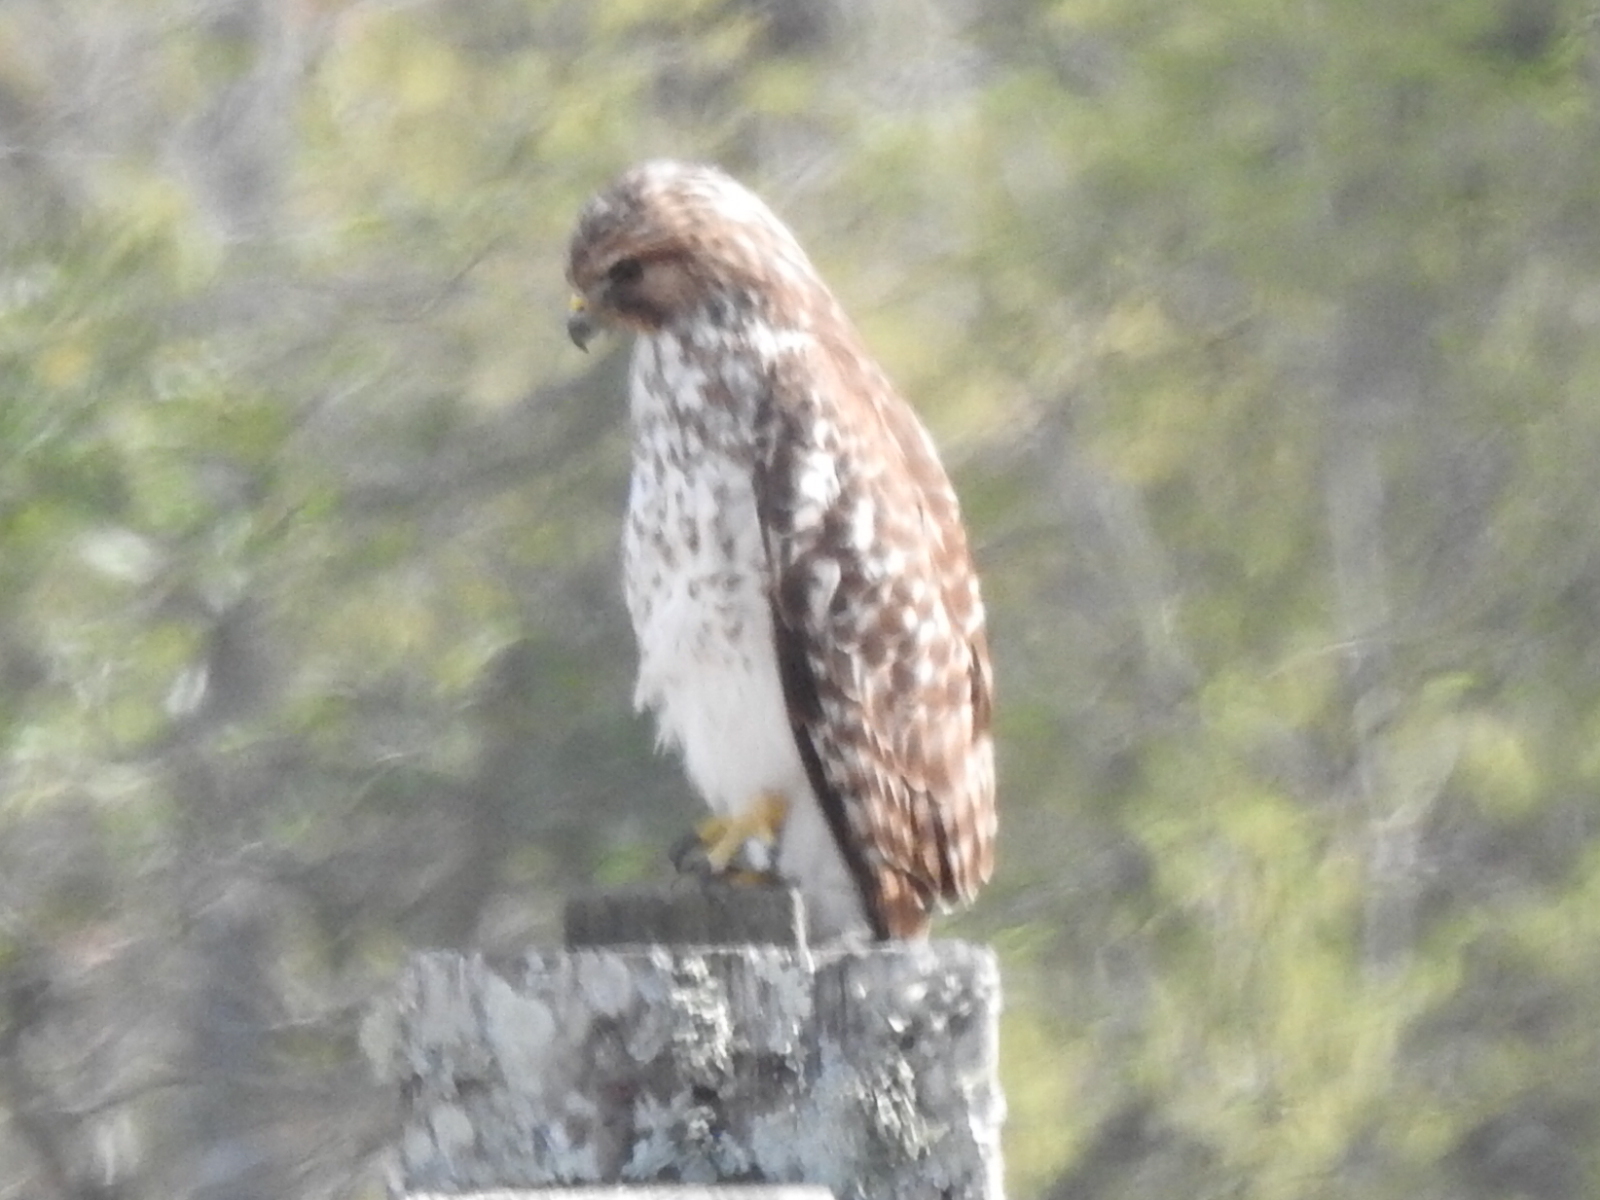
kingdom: Animalia
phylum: Chordata
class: Aves
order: Accipitriformes
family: Accipitridae
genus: Buteo
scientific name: Buteo lineatus
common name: Red-shouldered hawk
